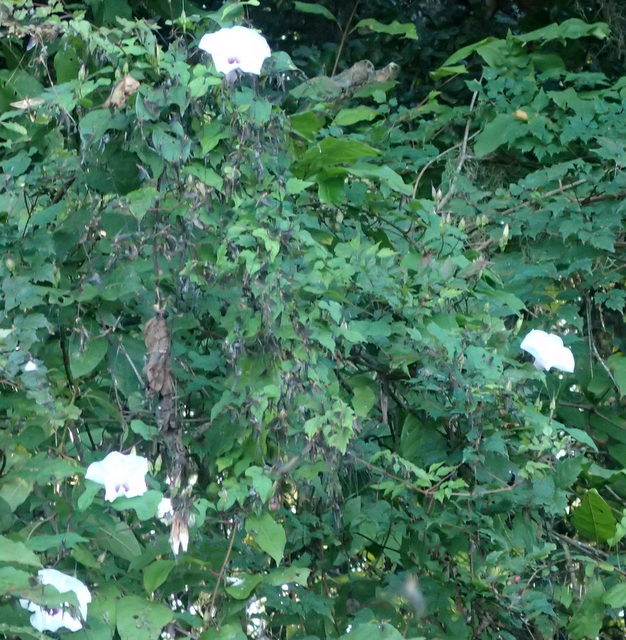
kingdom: Plantae
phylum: Tracheophyta
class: Magnoliopsida
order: Solanales
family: Convolvulaceae
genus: Ipomoea
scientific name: Ipomoea pandurata
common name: Man-of-the-earth
